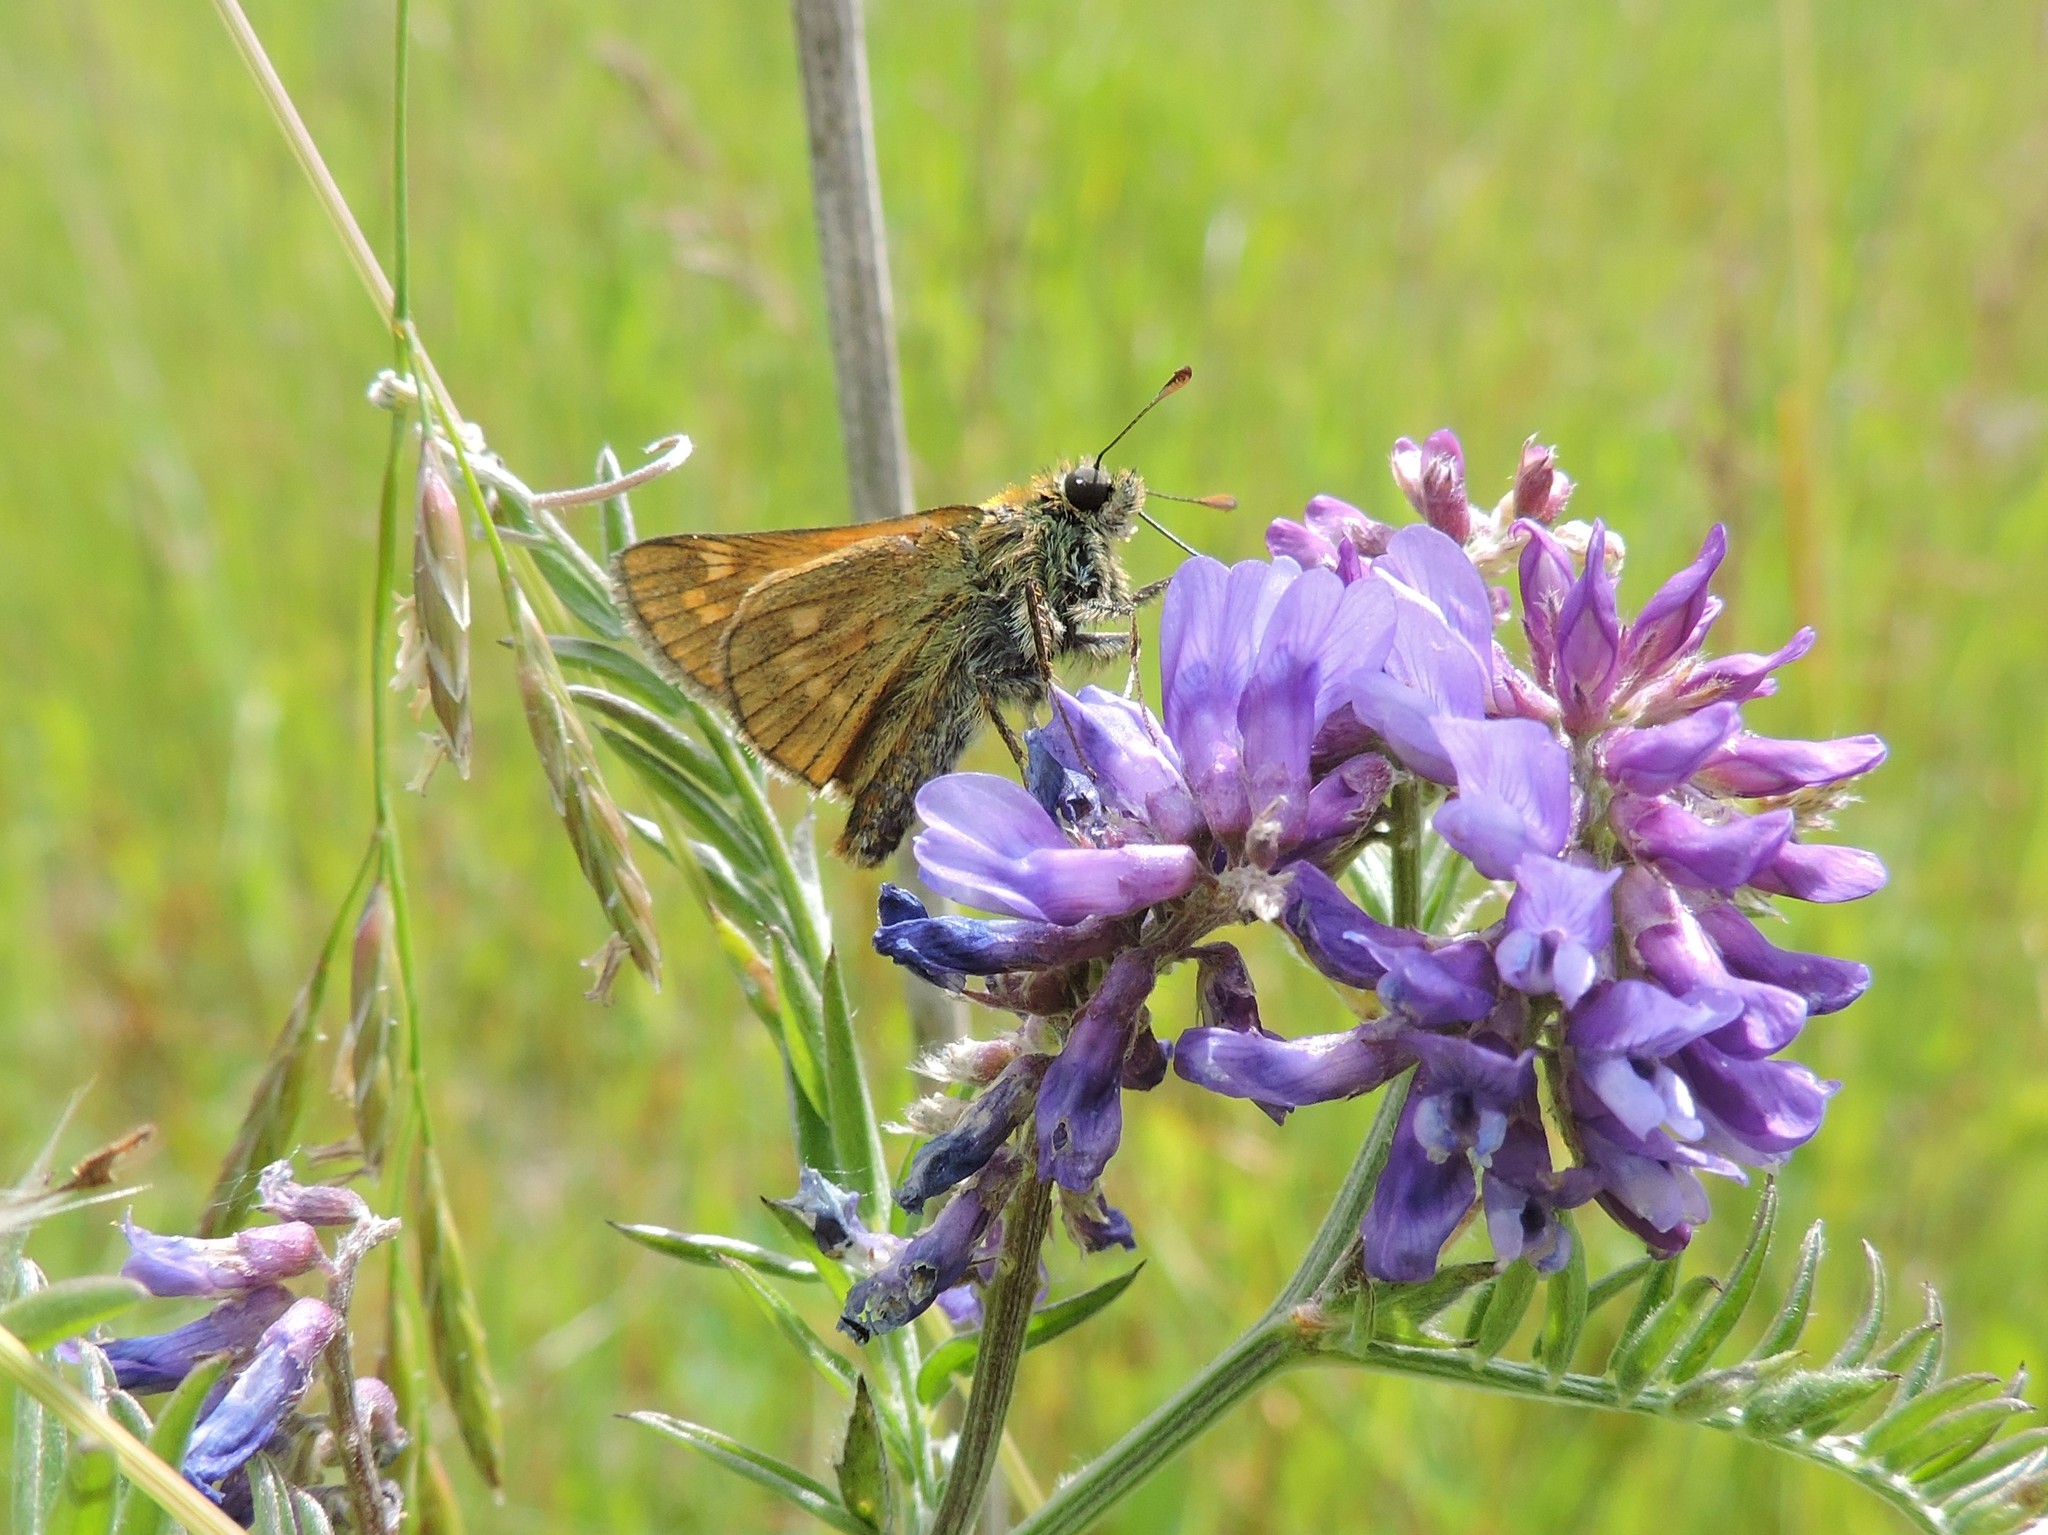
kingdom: Plantae
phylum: Tracheophyta
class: Magnoliopsida
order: Fabales
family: Fabaceae
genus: Vicia
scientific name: Vicia cracca
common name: Bird vetch
